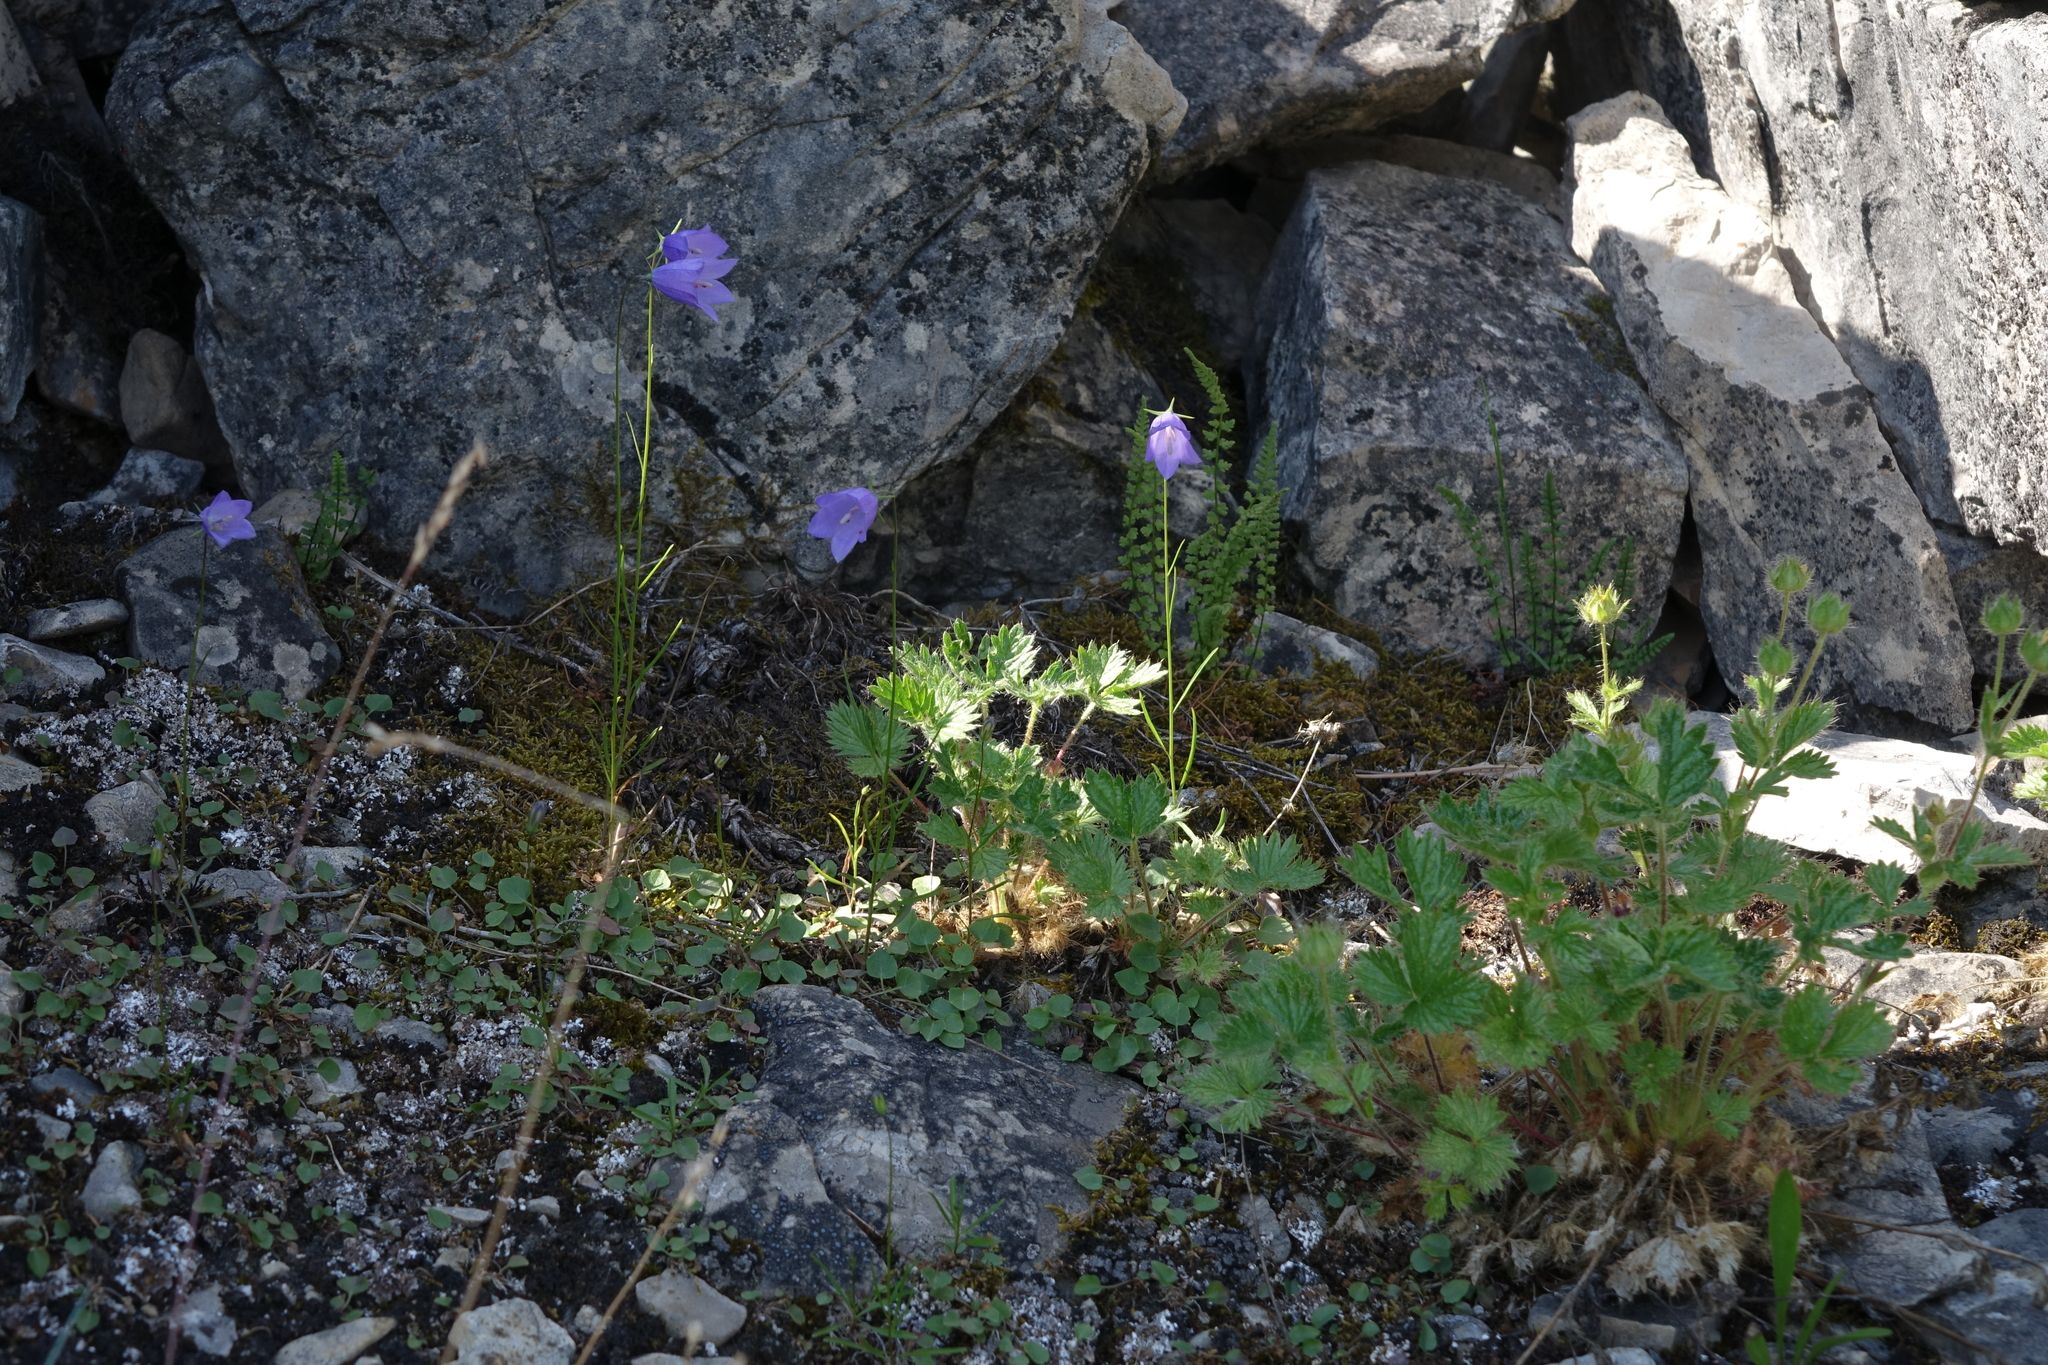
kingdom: Plantae
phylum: Tracheophyta
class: Magnoliopsida
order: Asterales
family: Campanulaceae
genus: Campanula
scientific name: Campanula rotundifolia
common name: Harebell
